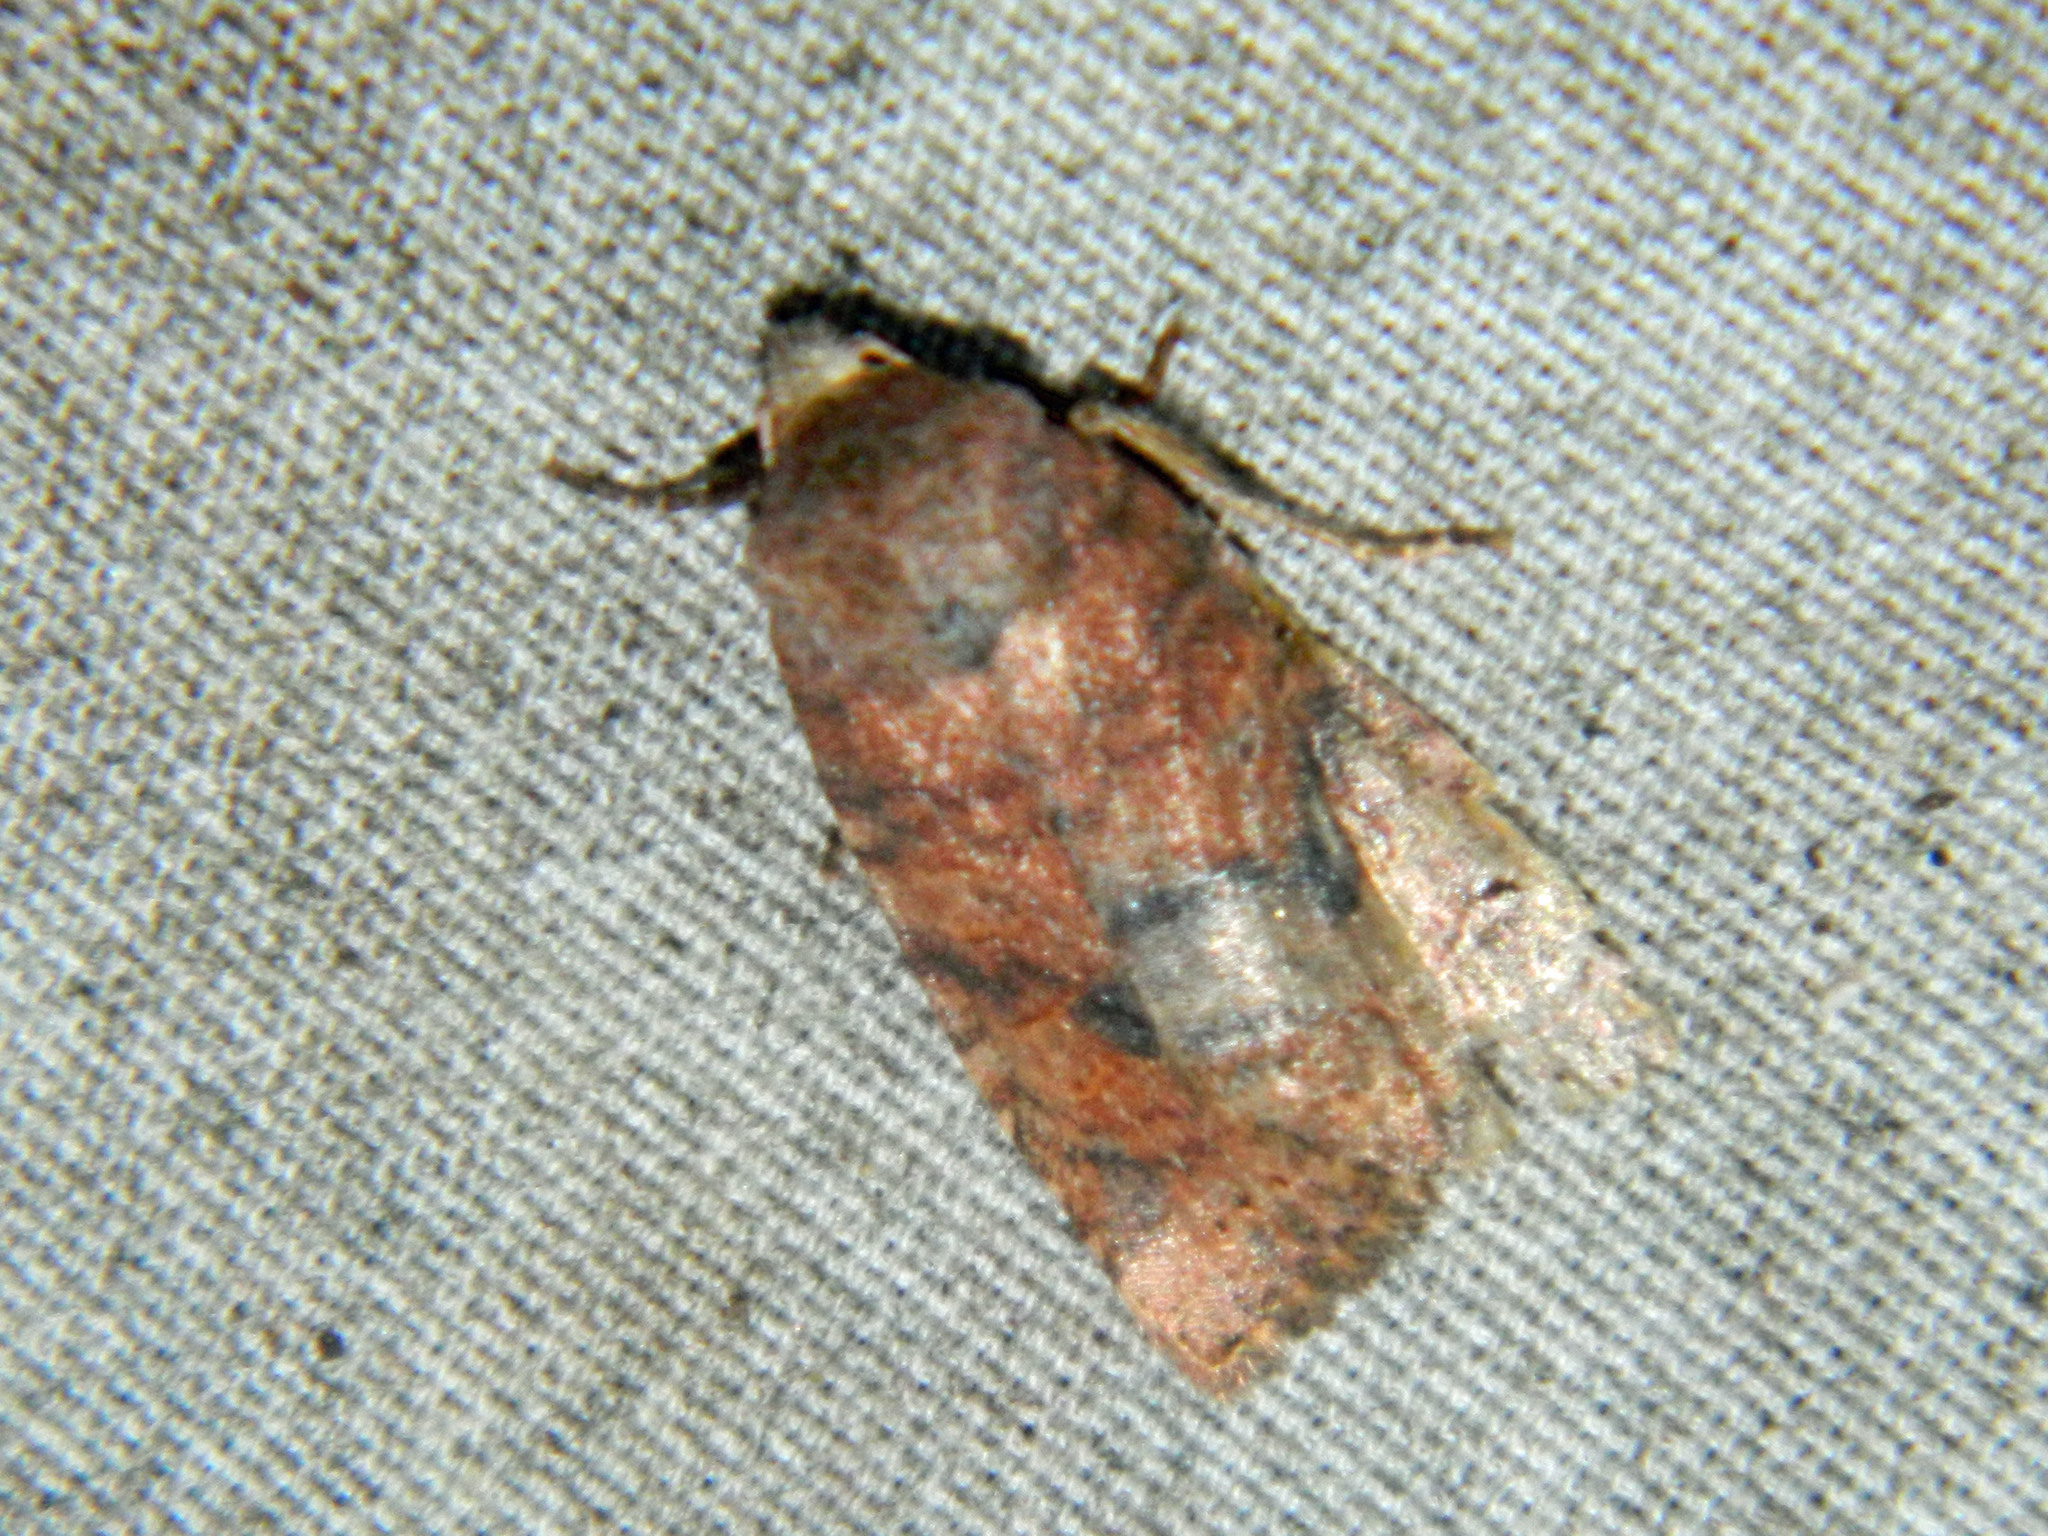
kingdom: Animalia
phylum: Arthropoda
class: Insecta
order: Lepidoptera
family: Noctuidae
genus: Anathix
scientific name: Anathix puta
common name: Puta sallow
